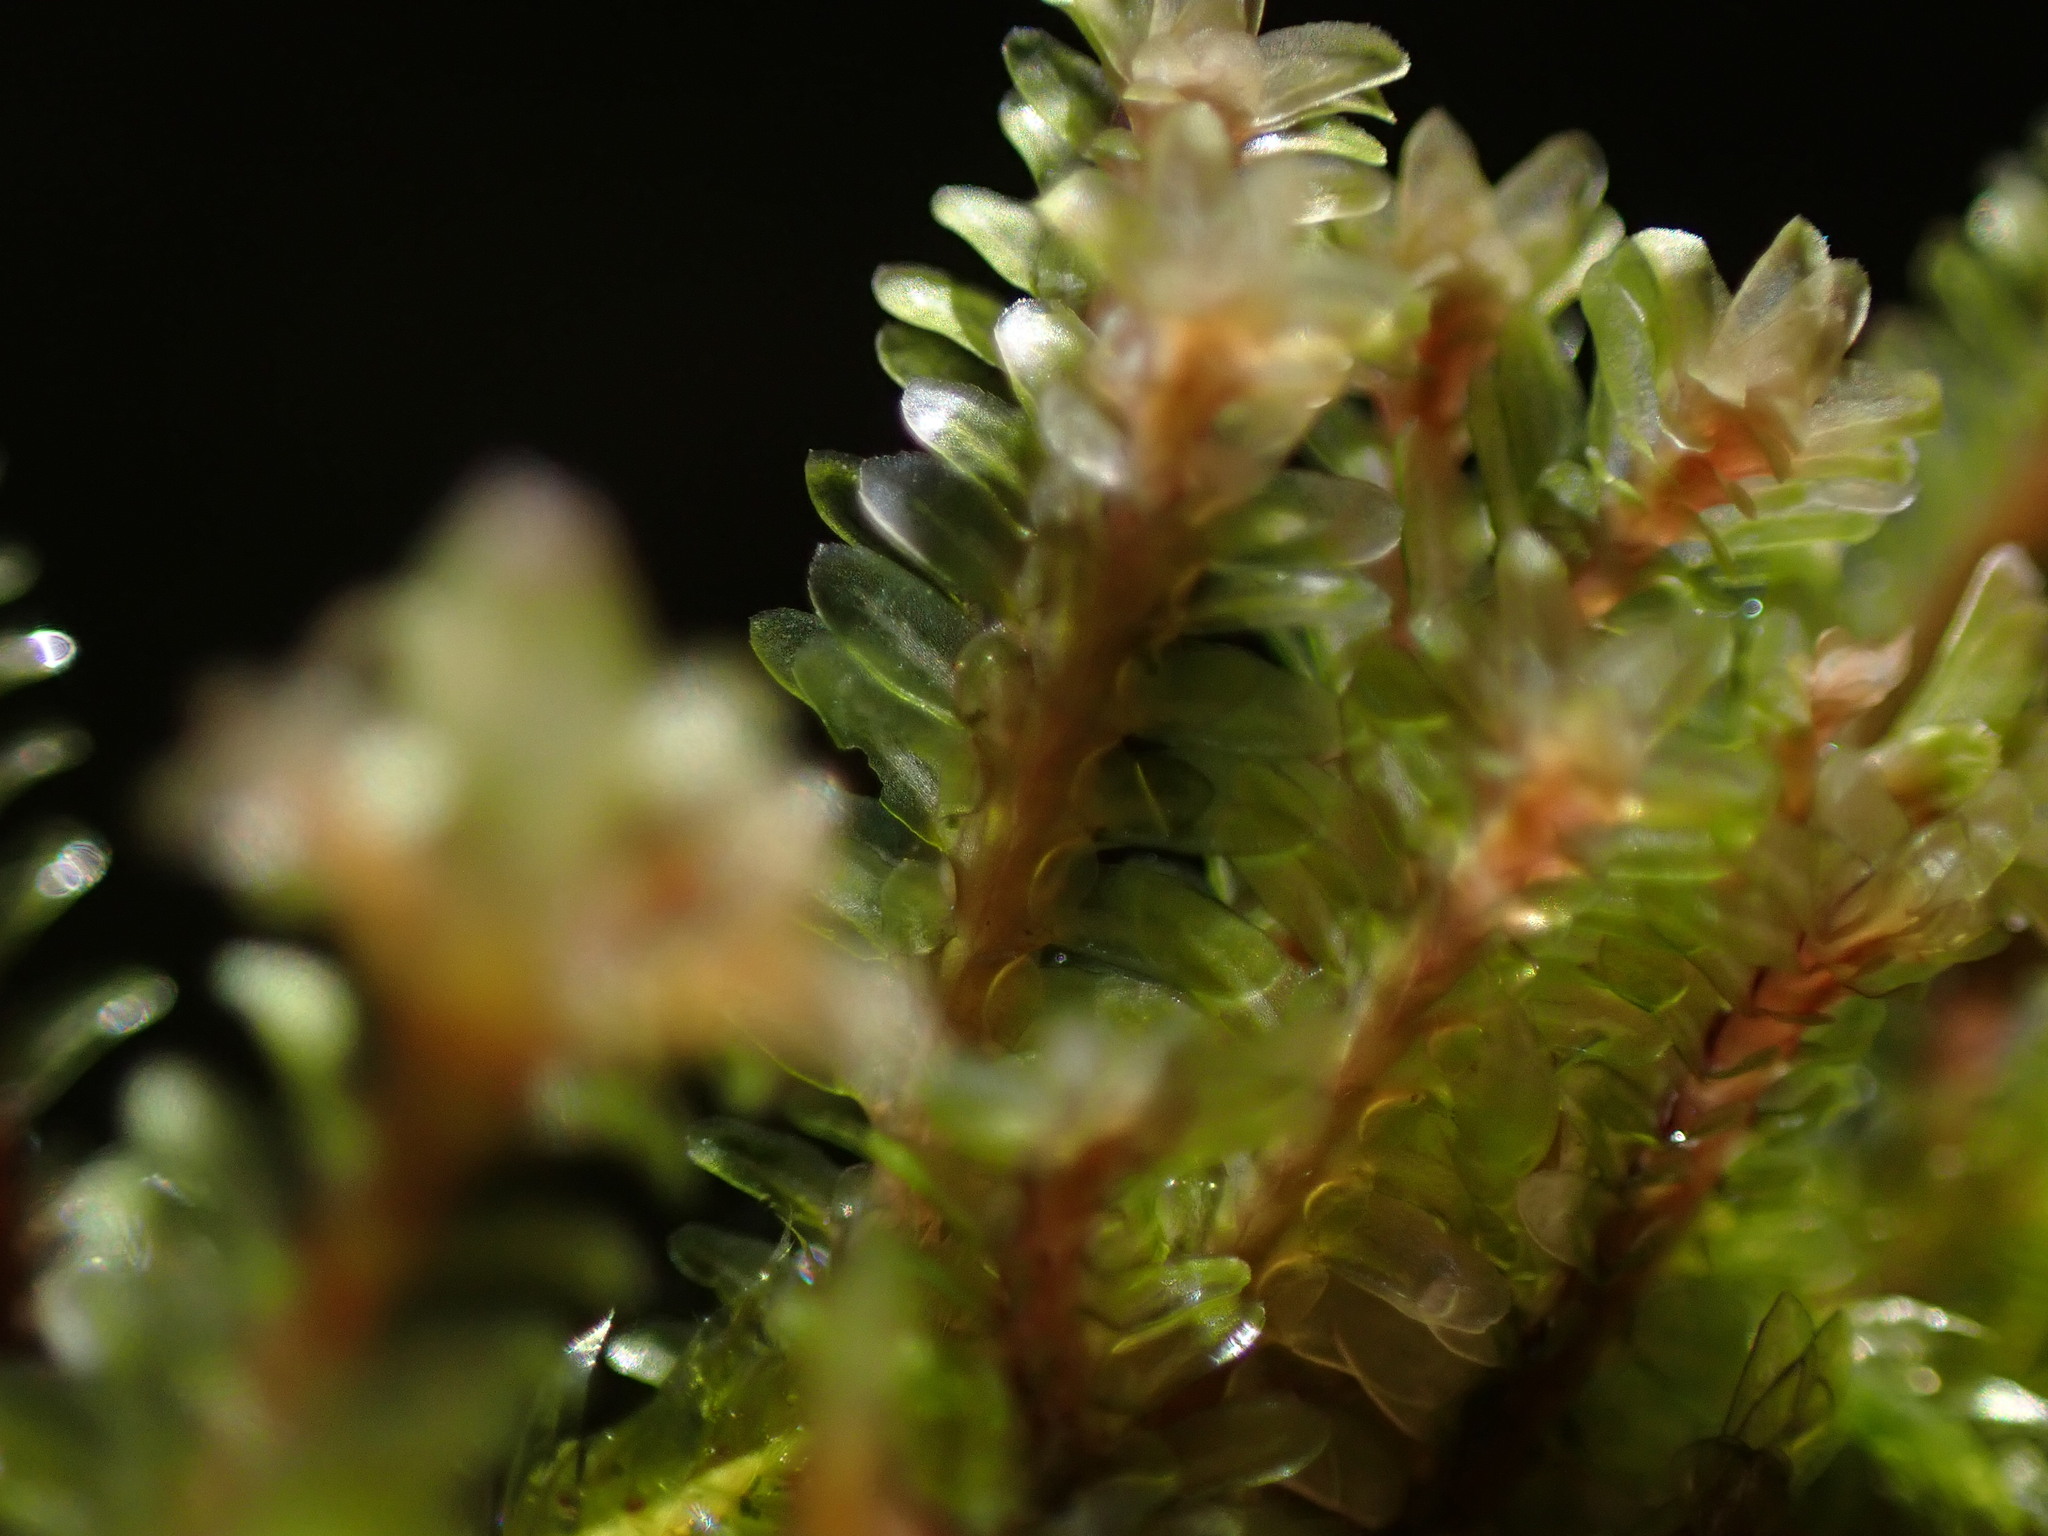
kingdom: Plantae
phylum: Marchantiophyta
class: Jungermanniopsida
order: Jungermanniales
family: Scapaniaceae
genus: Diplophyllum
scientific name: Diplophyllum albicans
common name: White earwort
